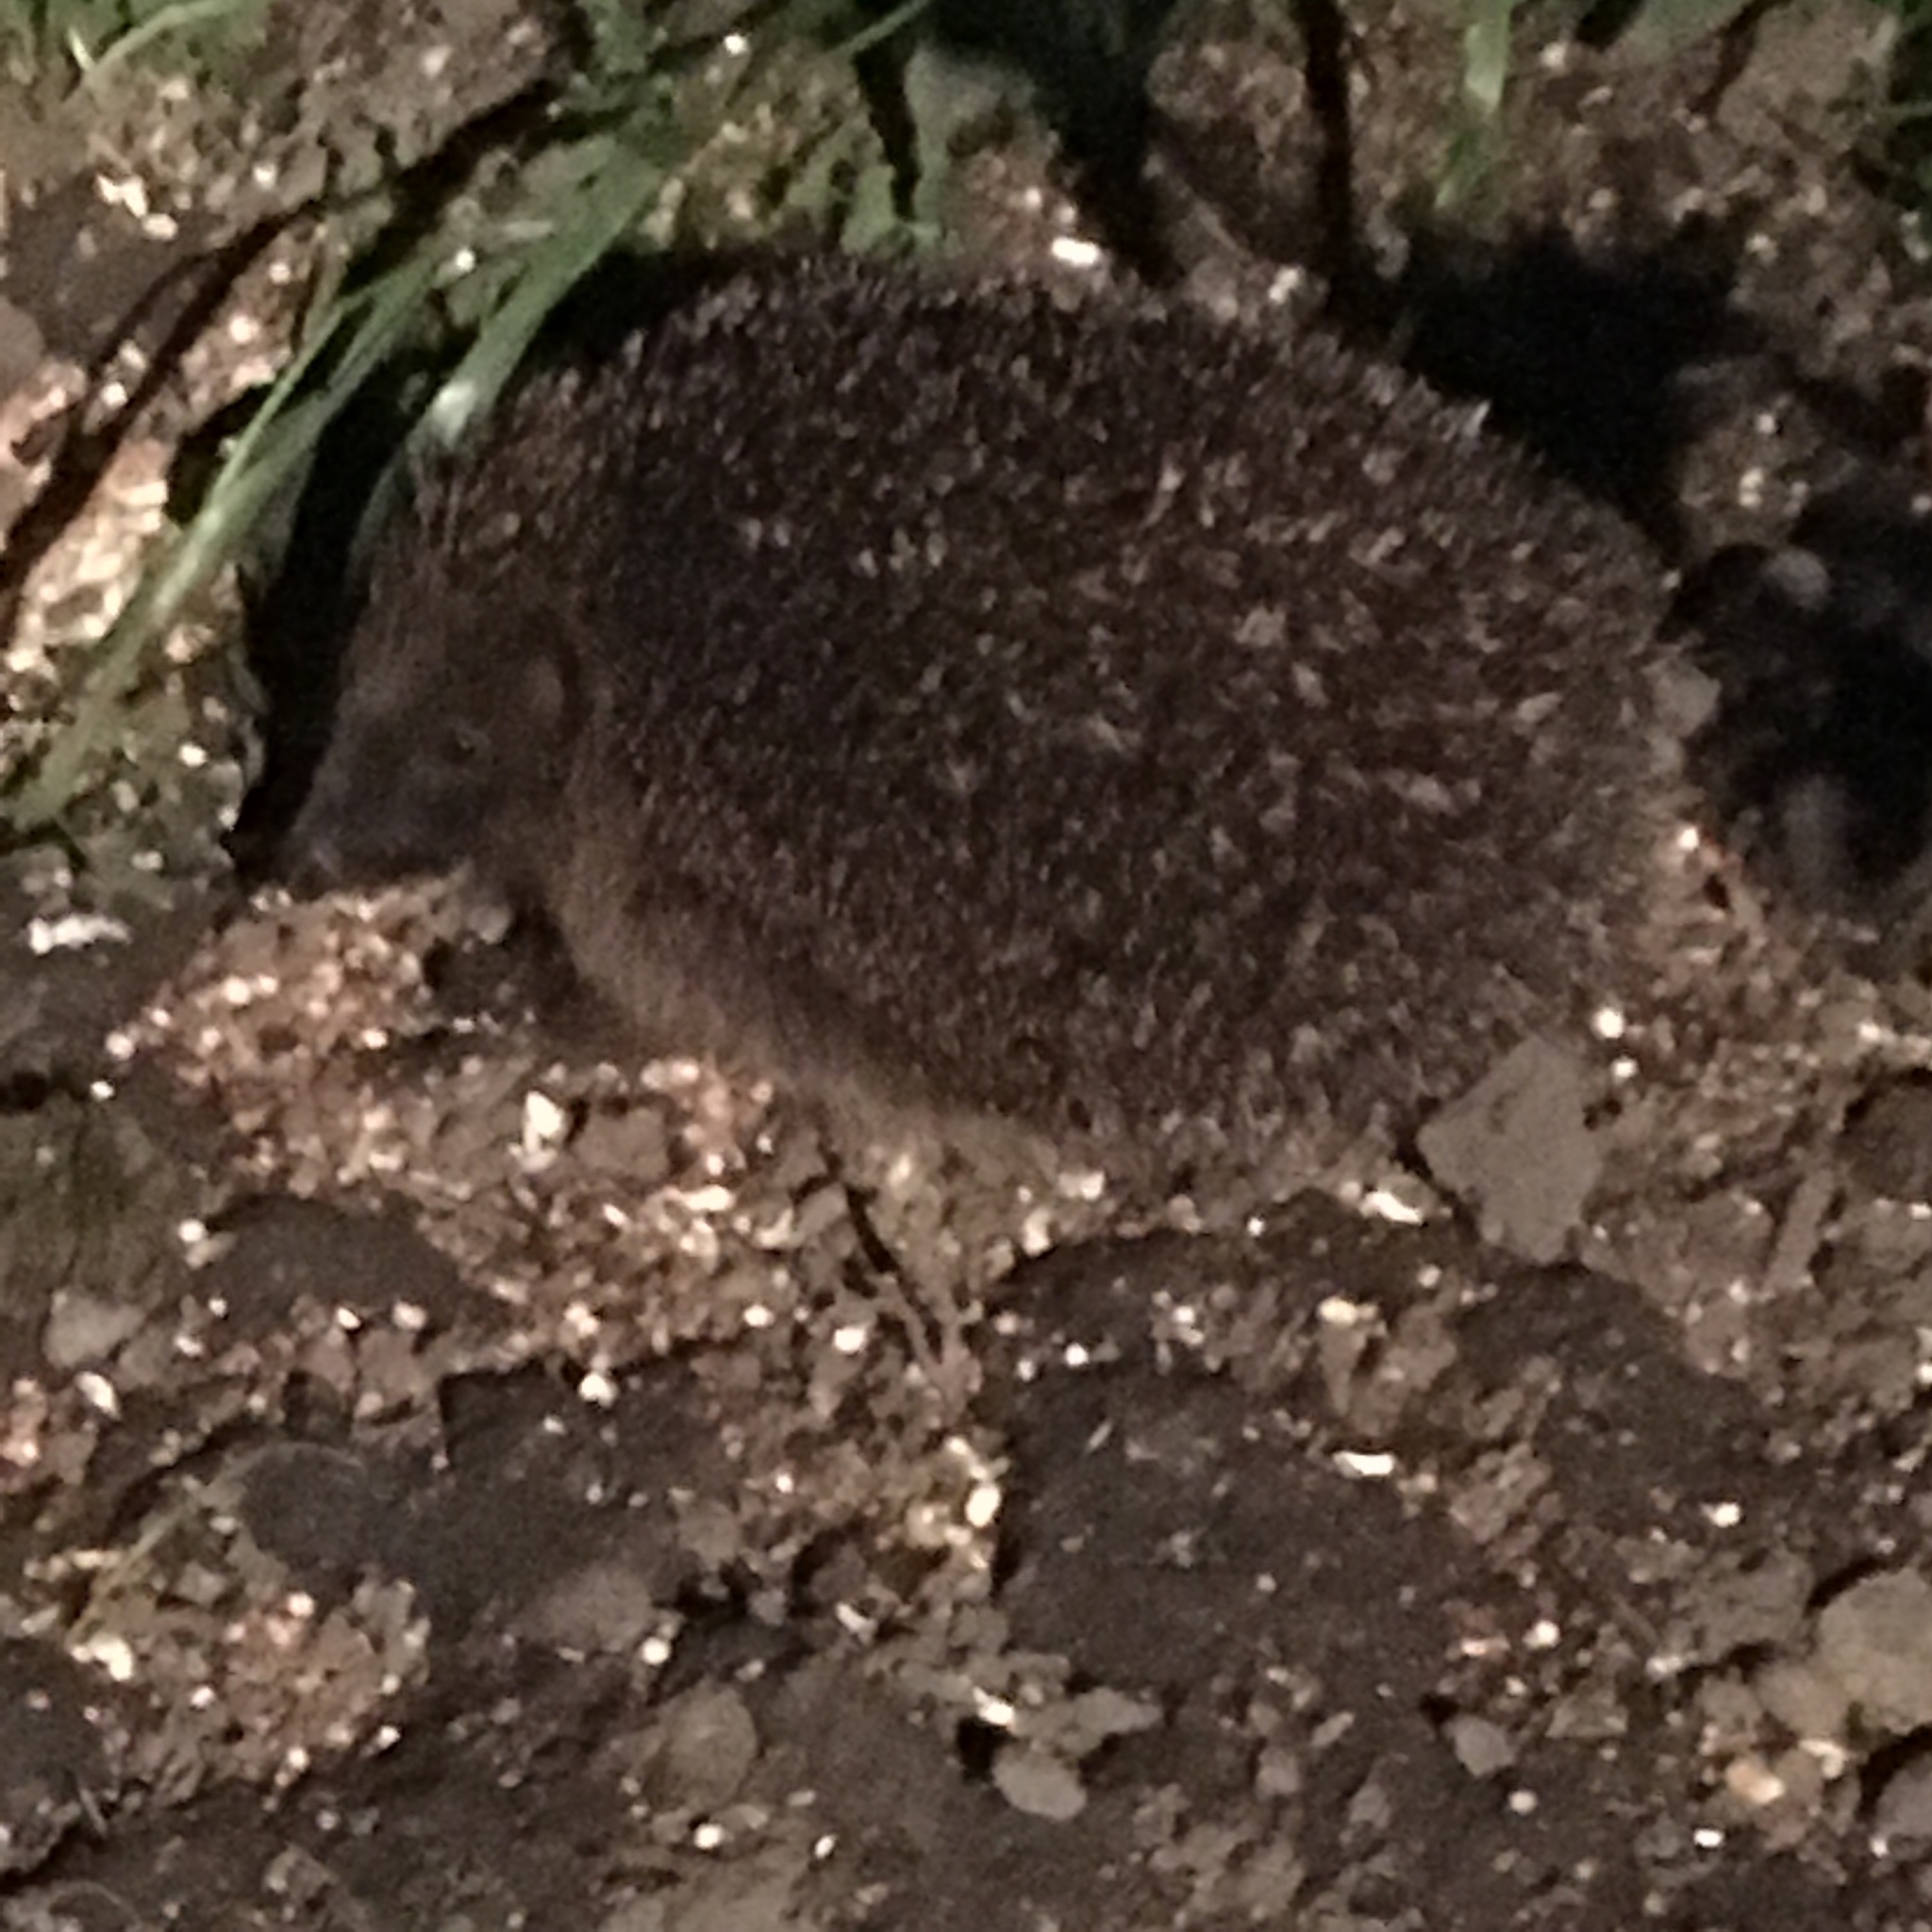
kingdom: Animalia
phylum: Chordata
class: Mammalia
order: Erinaceomorpha
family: Erinaceidae
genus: Erinaceus
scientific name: Erinaceus europaeus
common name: West european hedgehog
